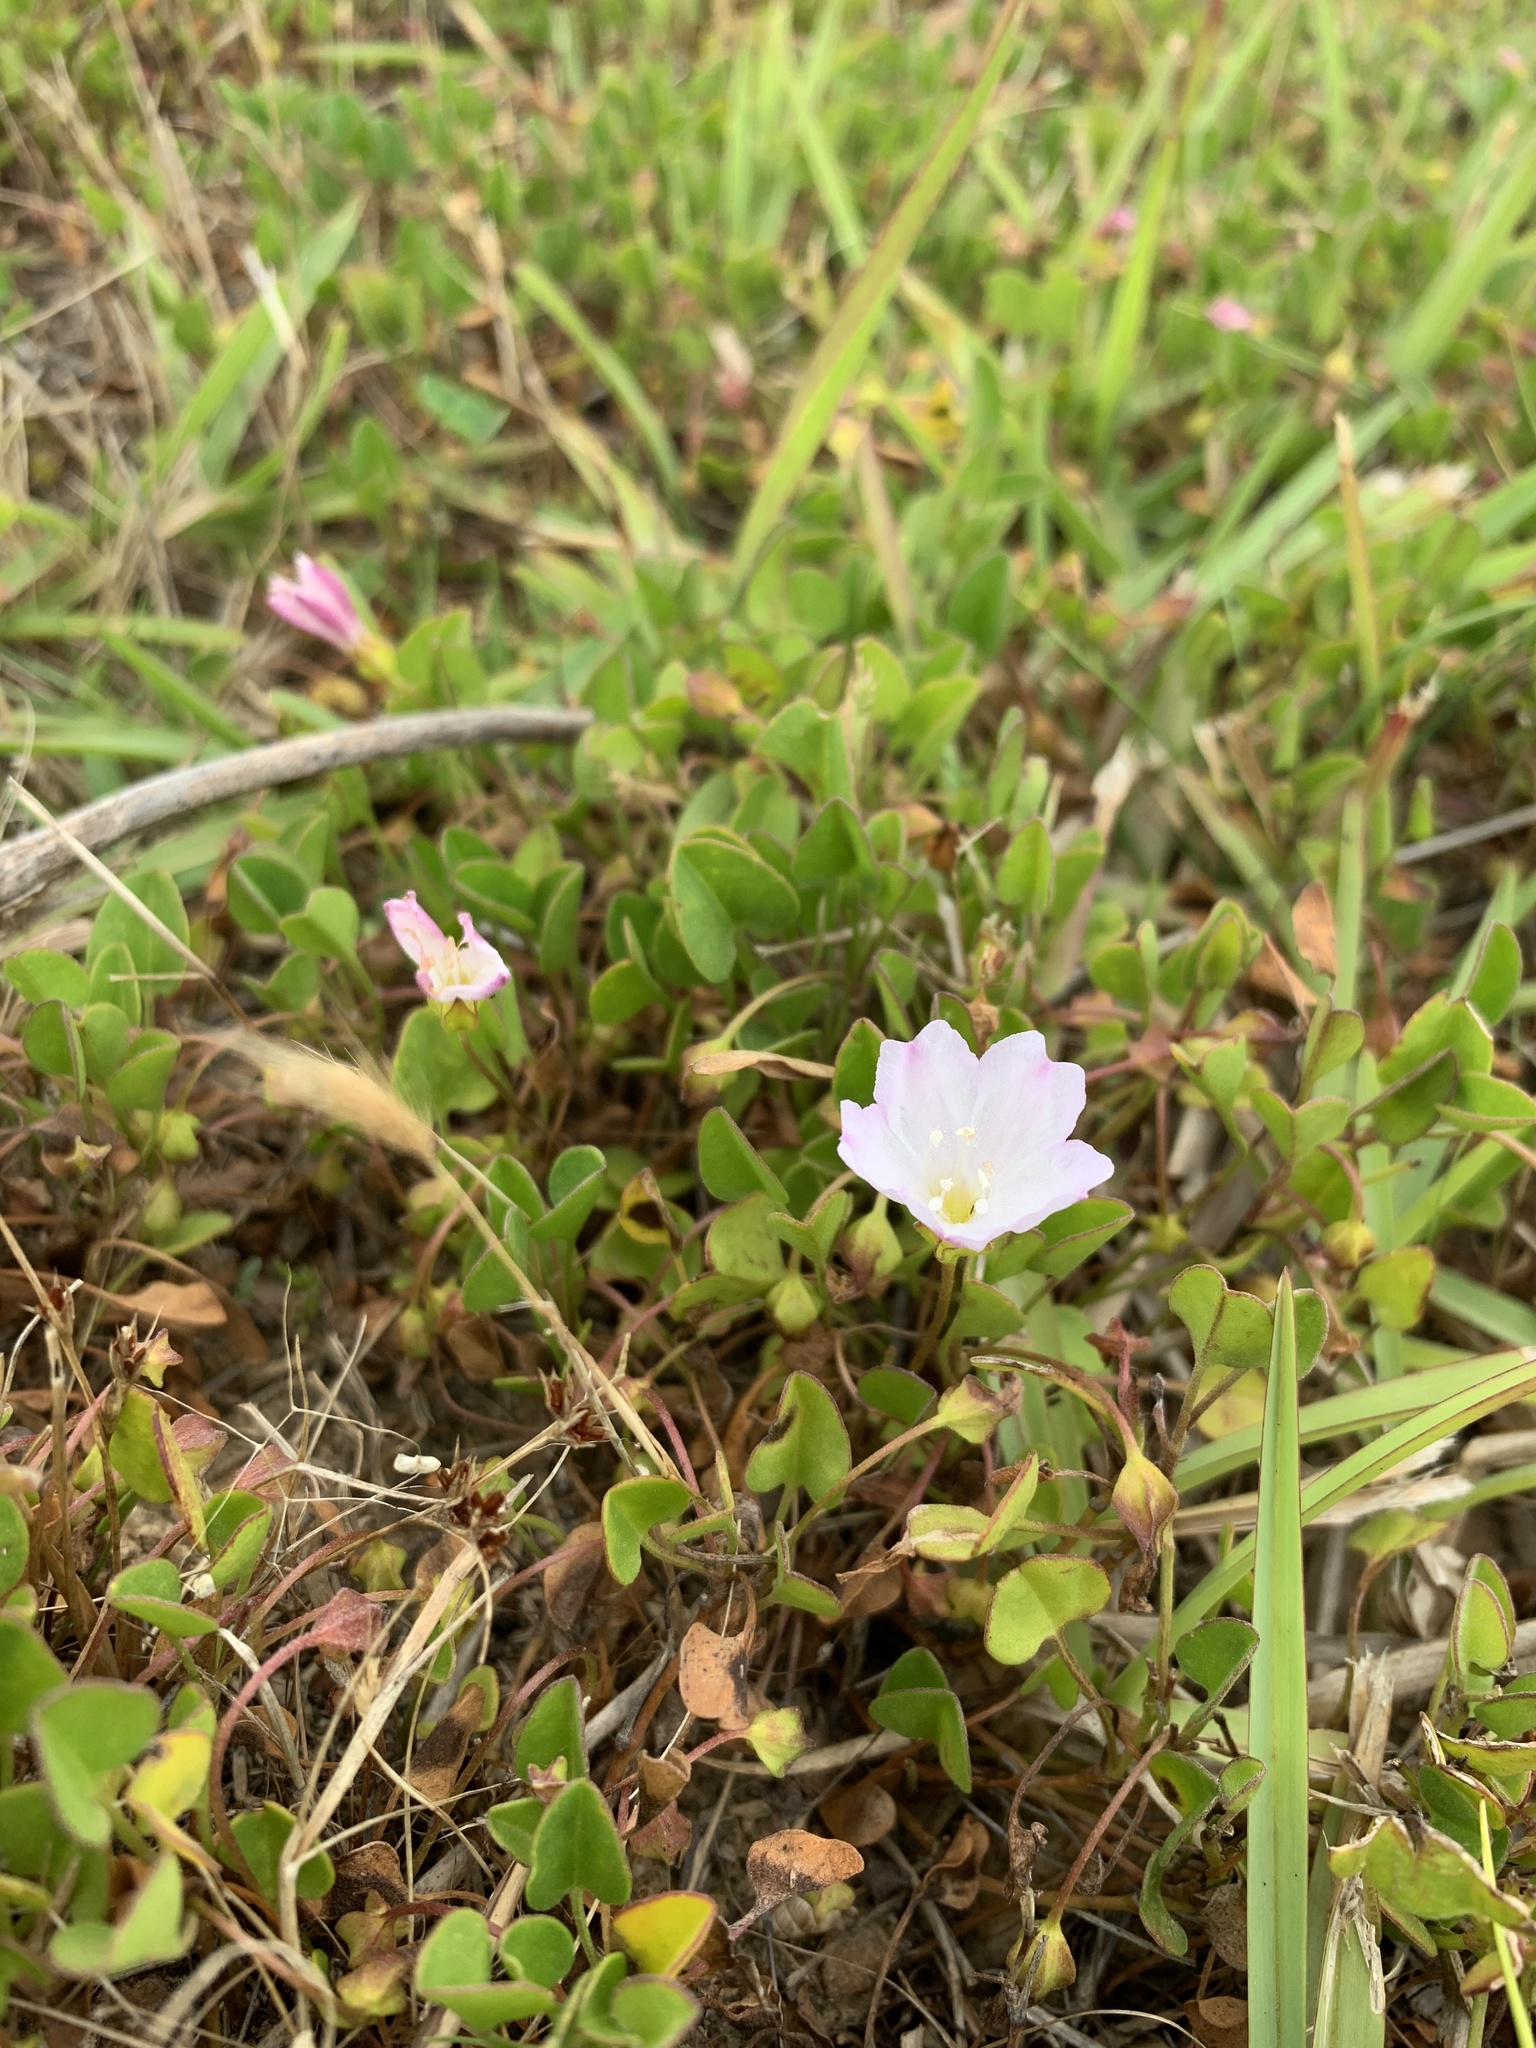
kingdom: Plantae
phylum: Tracheophyta
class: Magnoliopsida
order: Solanales
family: Convolvulaceae
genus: Falkia
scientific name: Falkia repens
